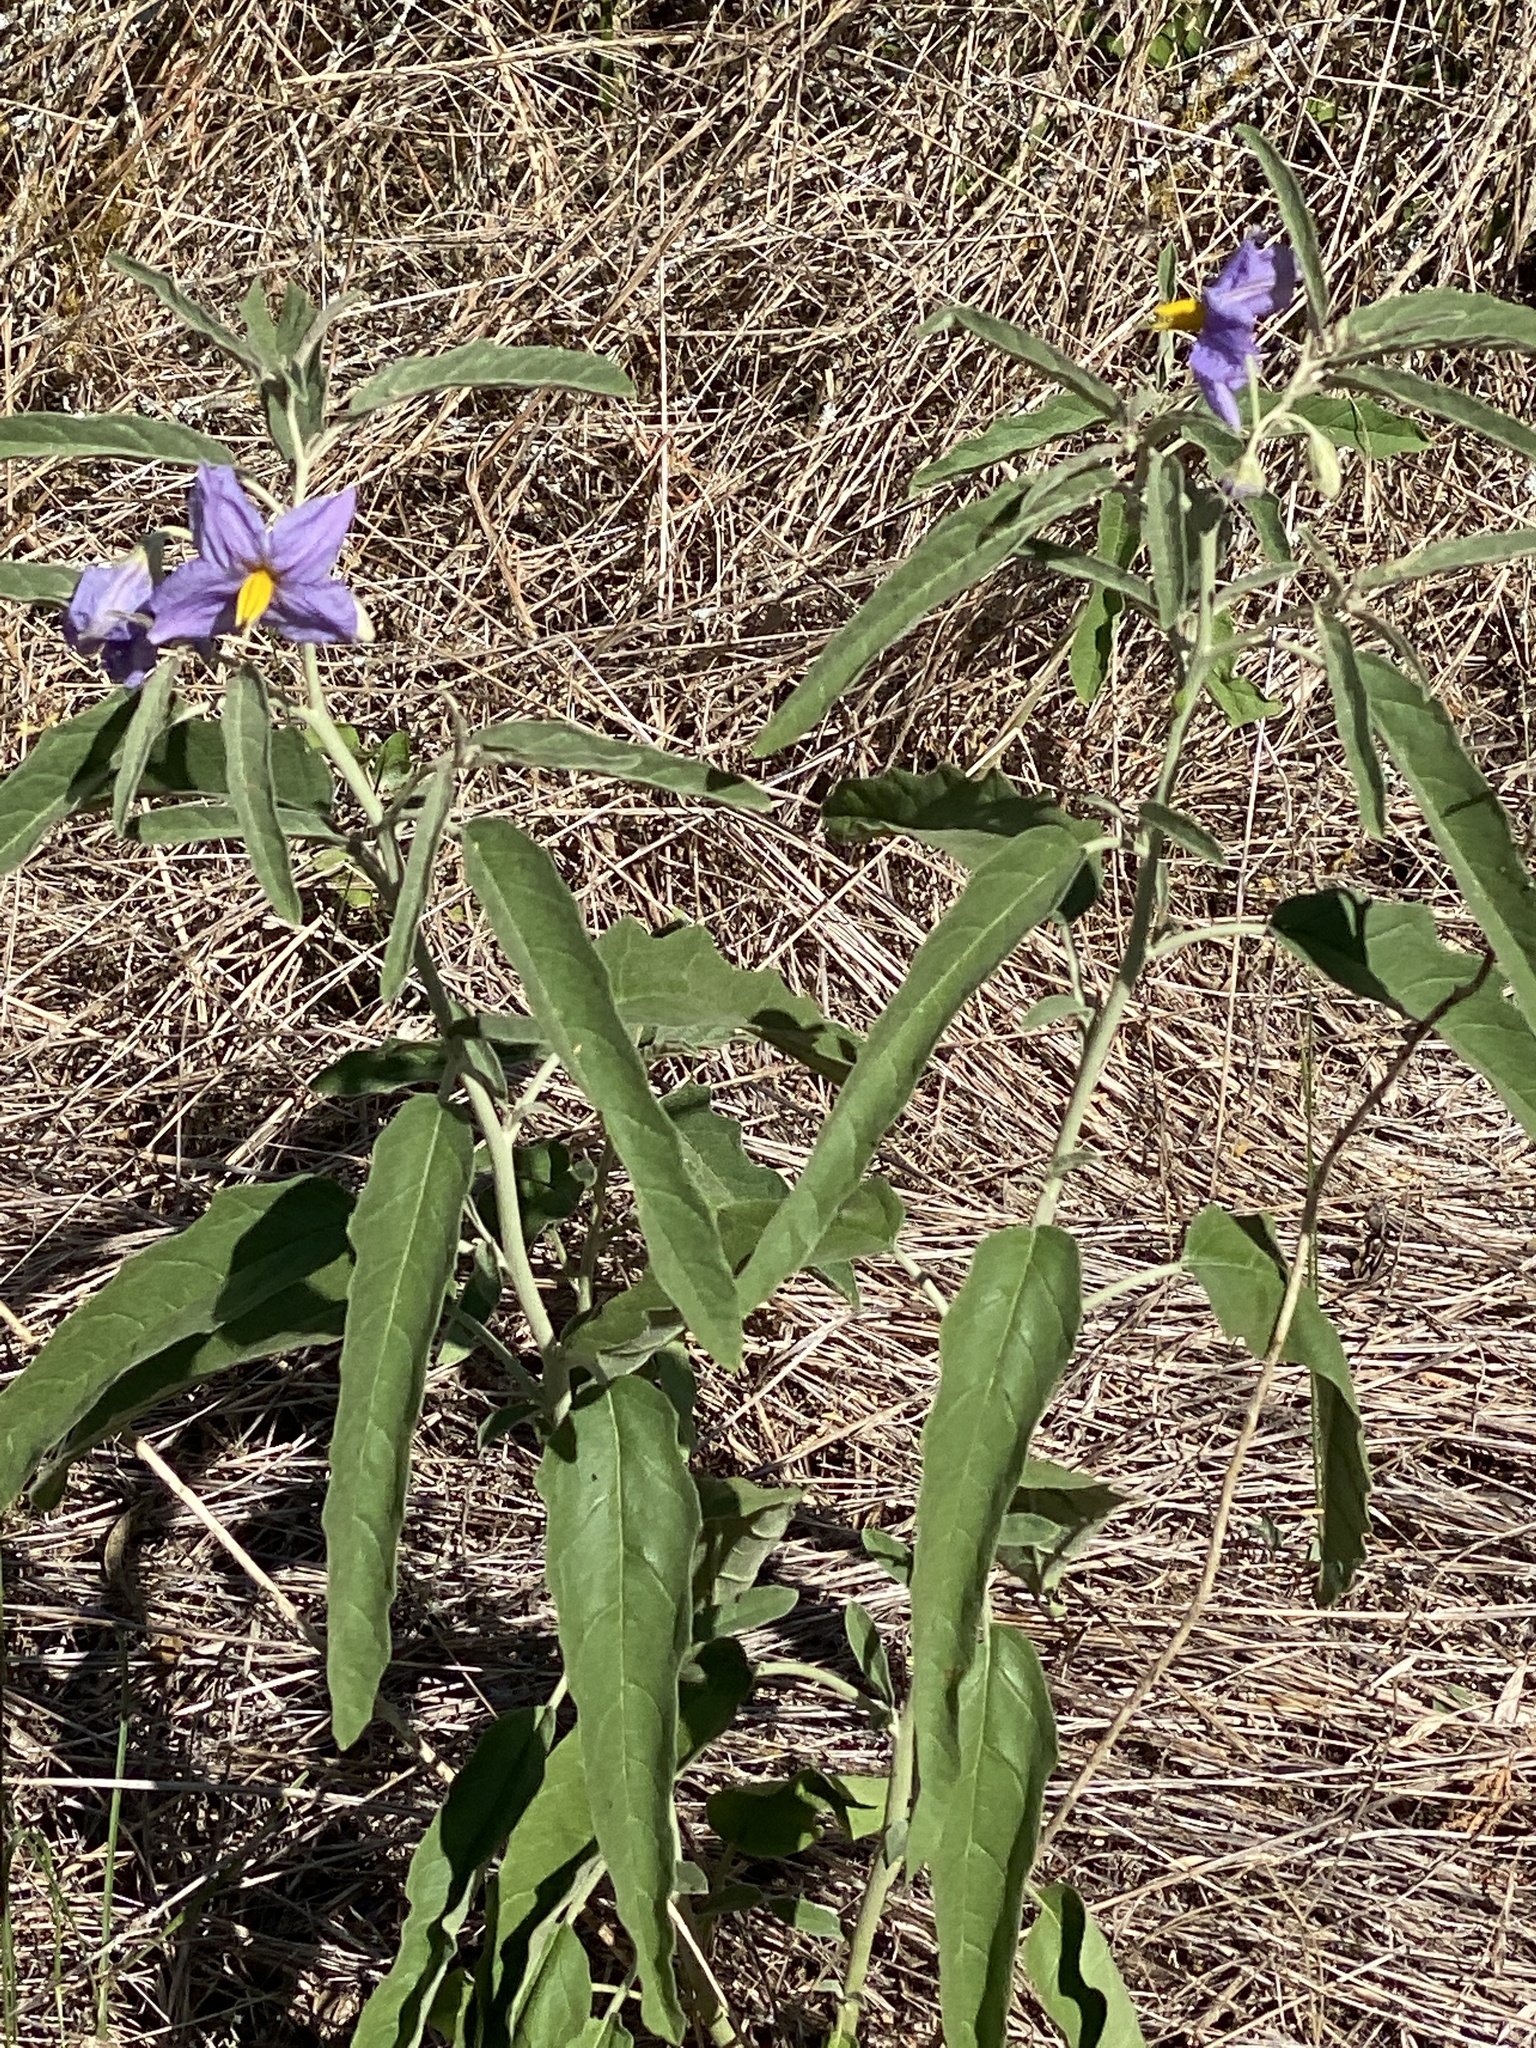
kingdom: Plantae
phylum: Tracheophyta
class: Magnoliopsida
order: Solanales
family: Solanaceae
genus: Solanum
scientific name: Solanum elaeagnifolium
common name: Silverleaf nightshade
